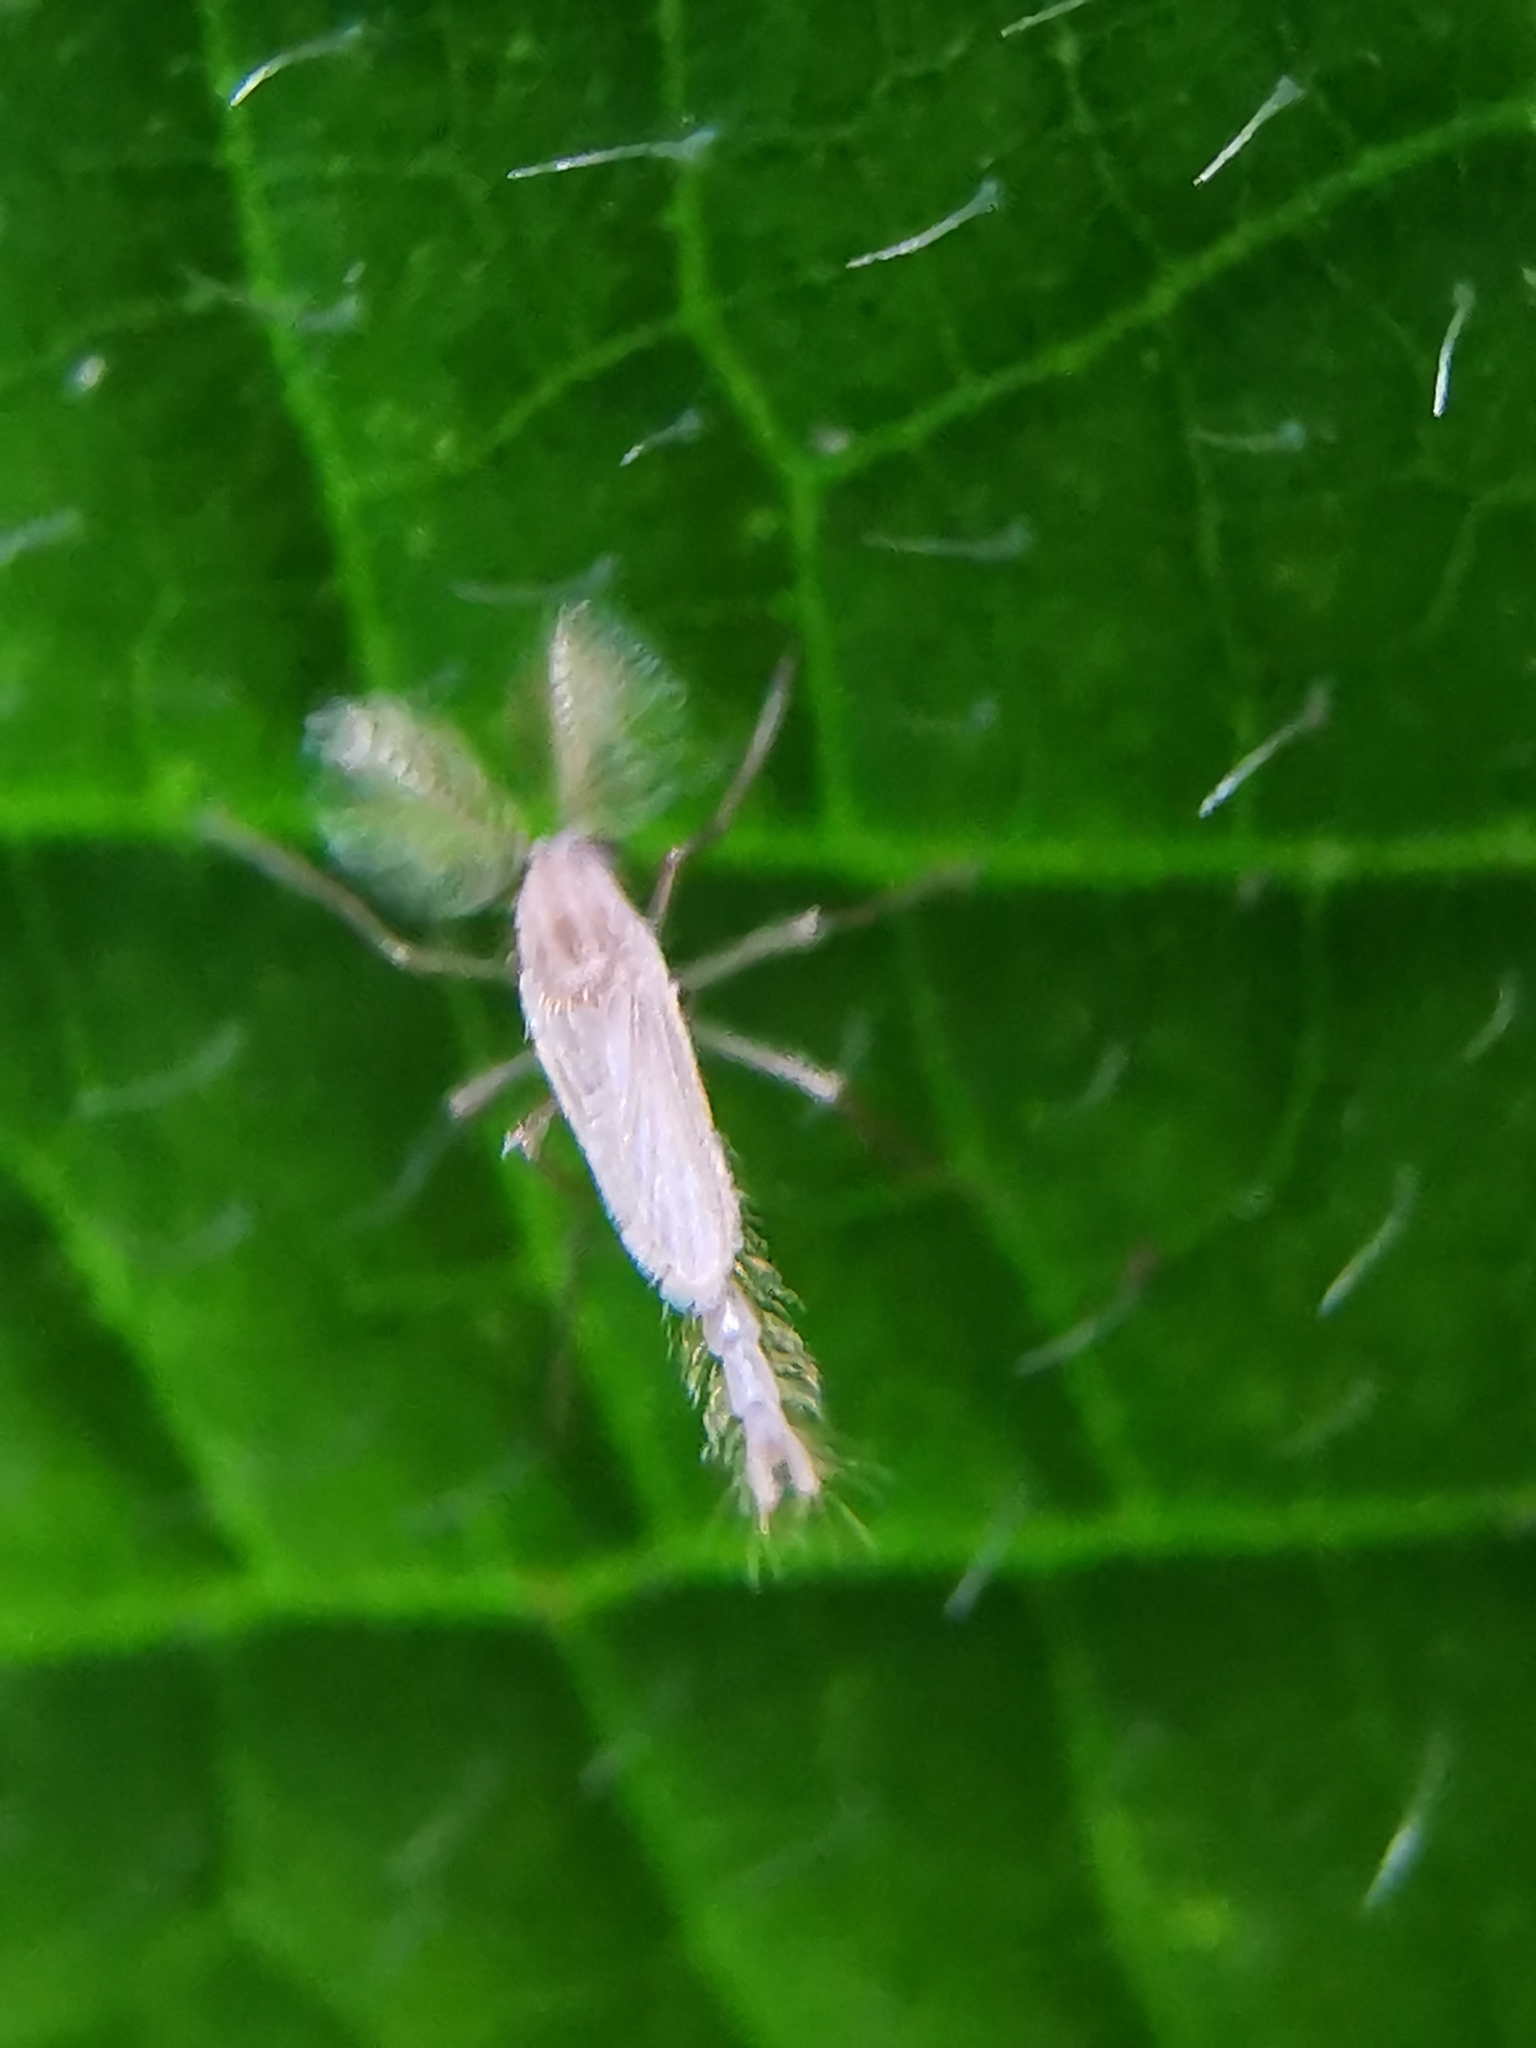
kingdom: Animalia
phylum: Arthropoda
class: Insecta
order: Diptera
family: Chaoboridae
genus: Chaoborus
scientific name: Chaoborus flavidulus
